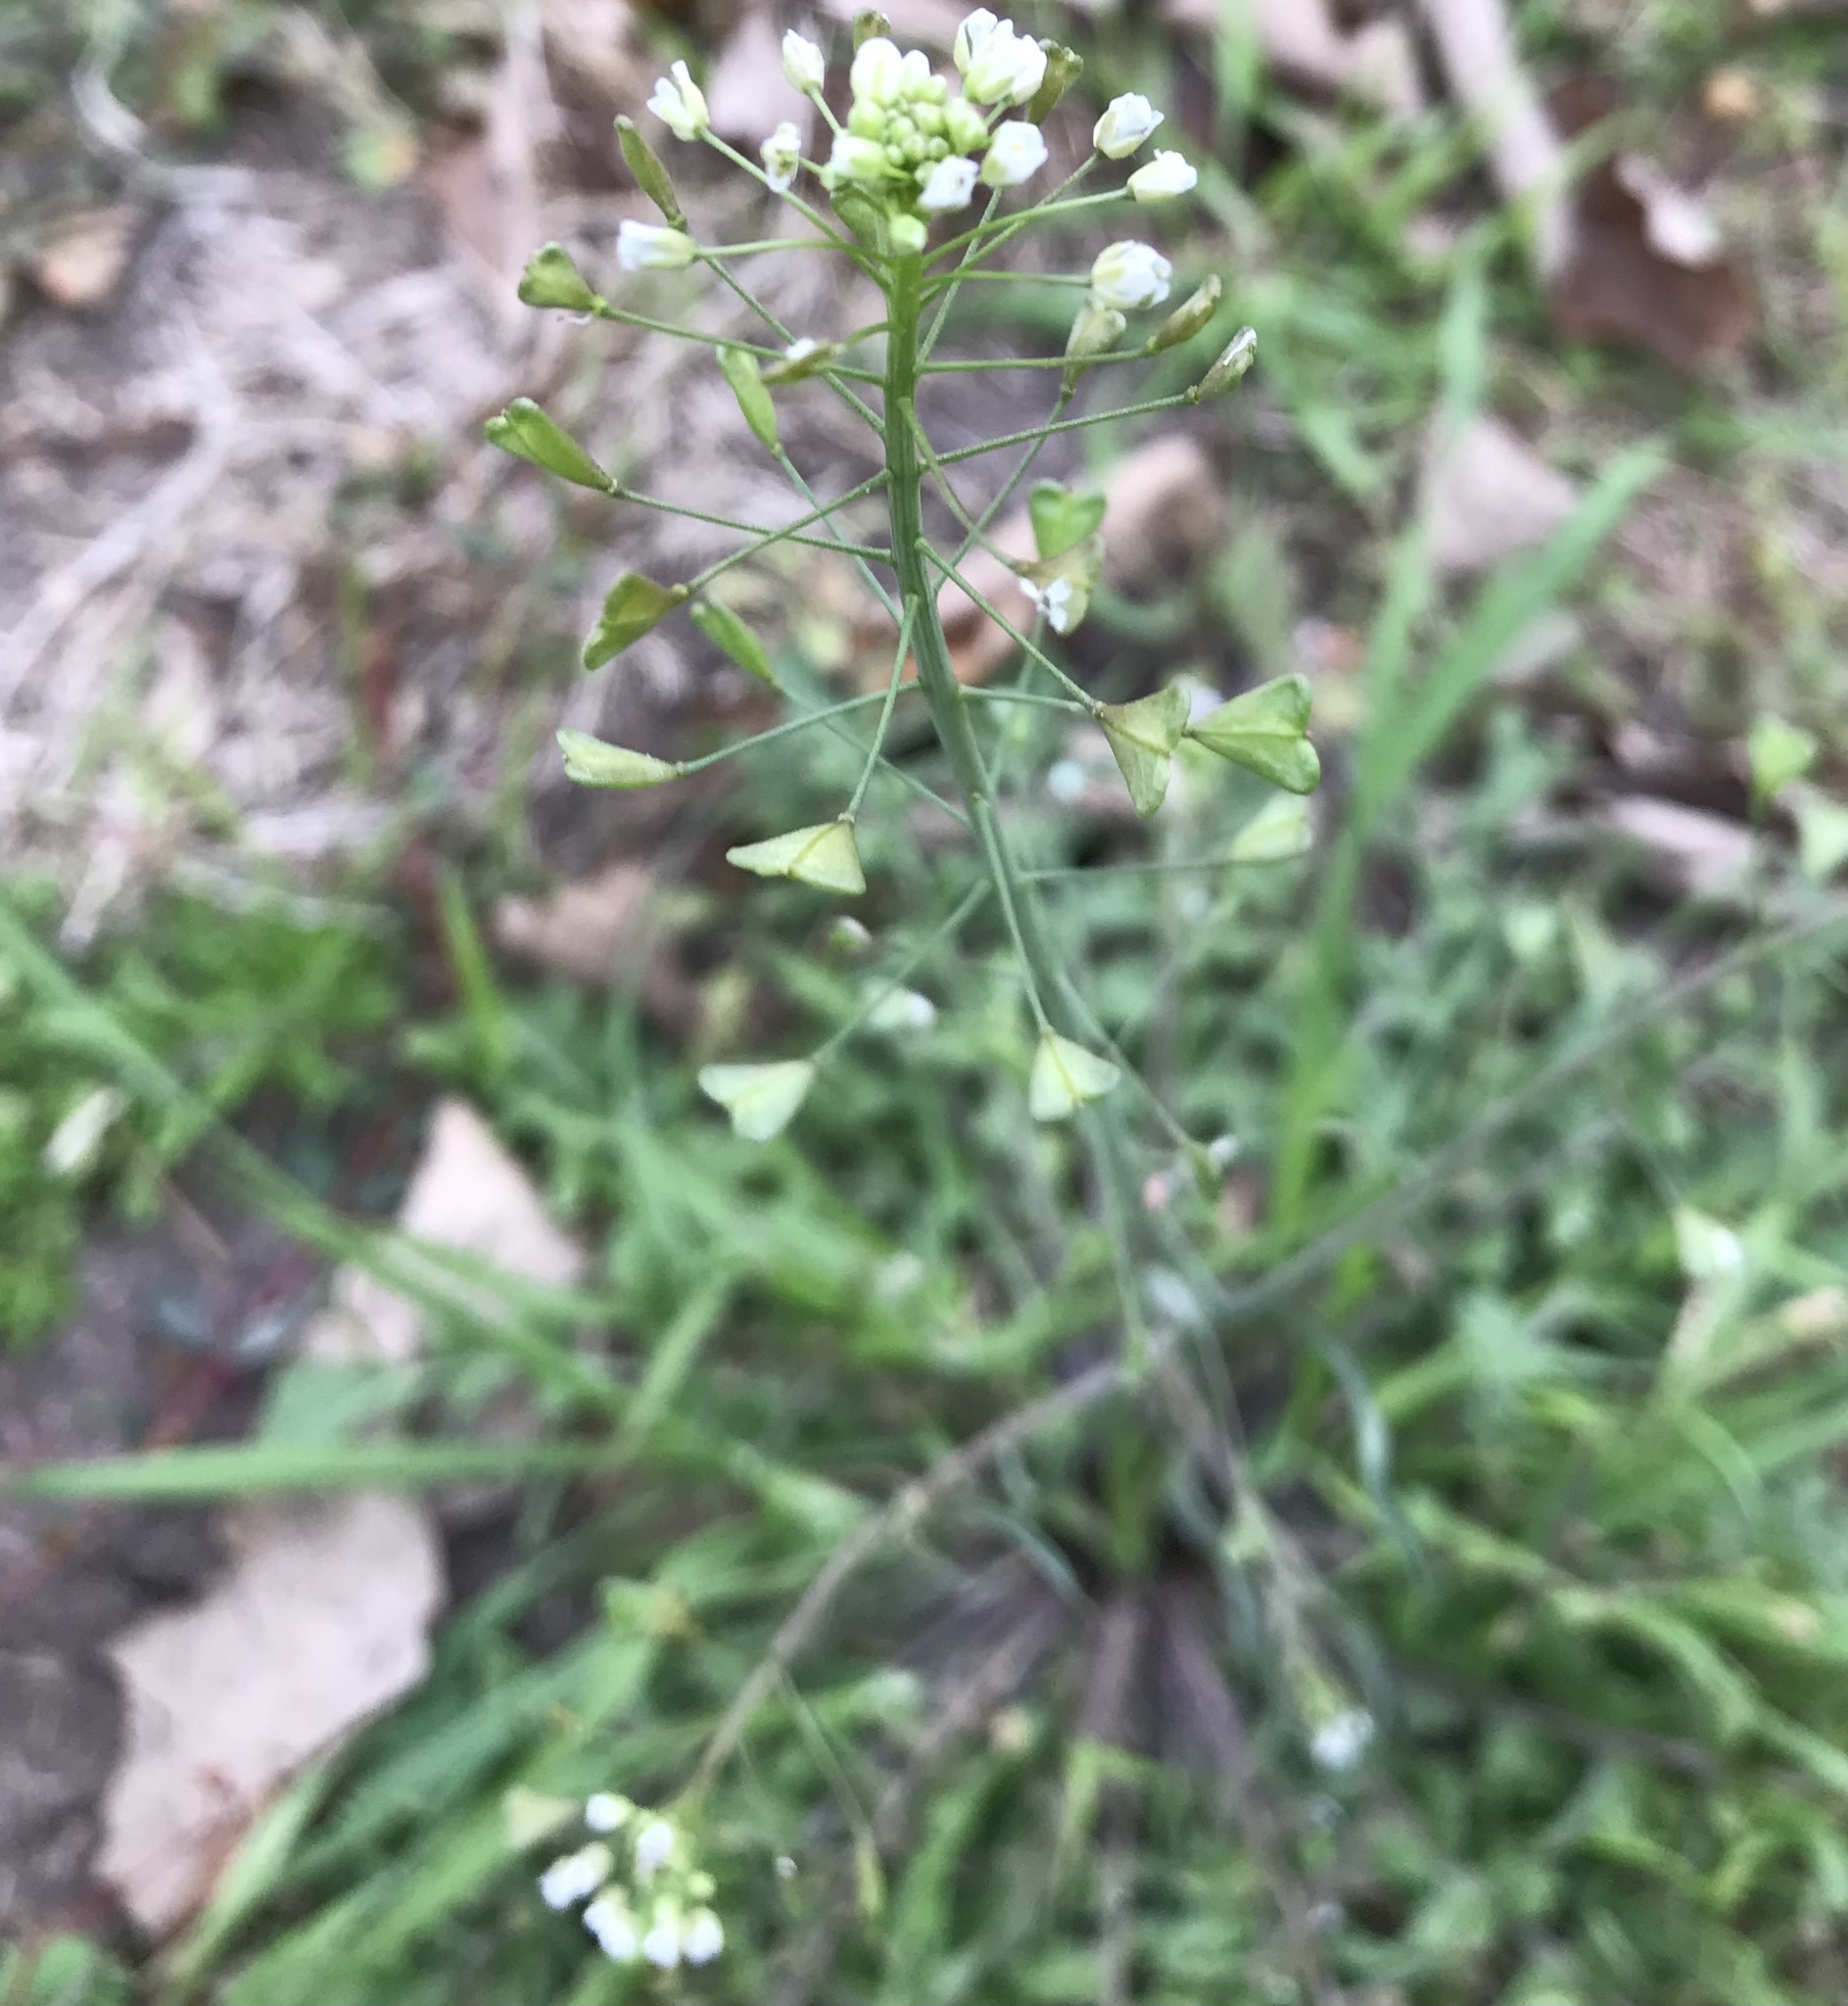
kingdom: Plantae
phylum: Tracheophyta
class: Magnoliopsida
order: Brassicales
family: Brassicaceae
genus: Capsella
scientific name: Capsella bursa-pastoris
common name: Shepherd's purse
